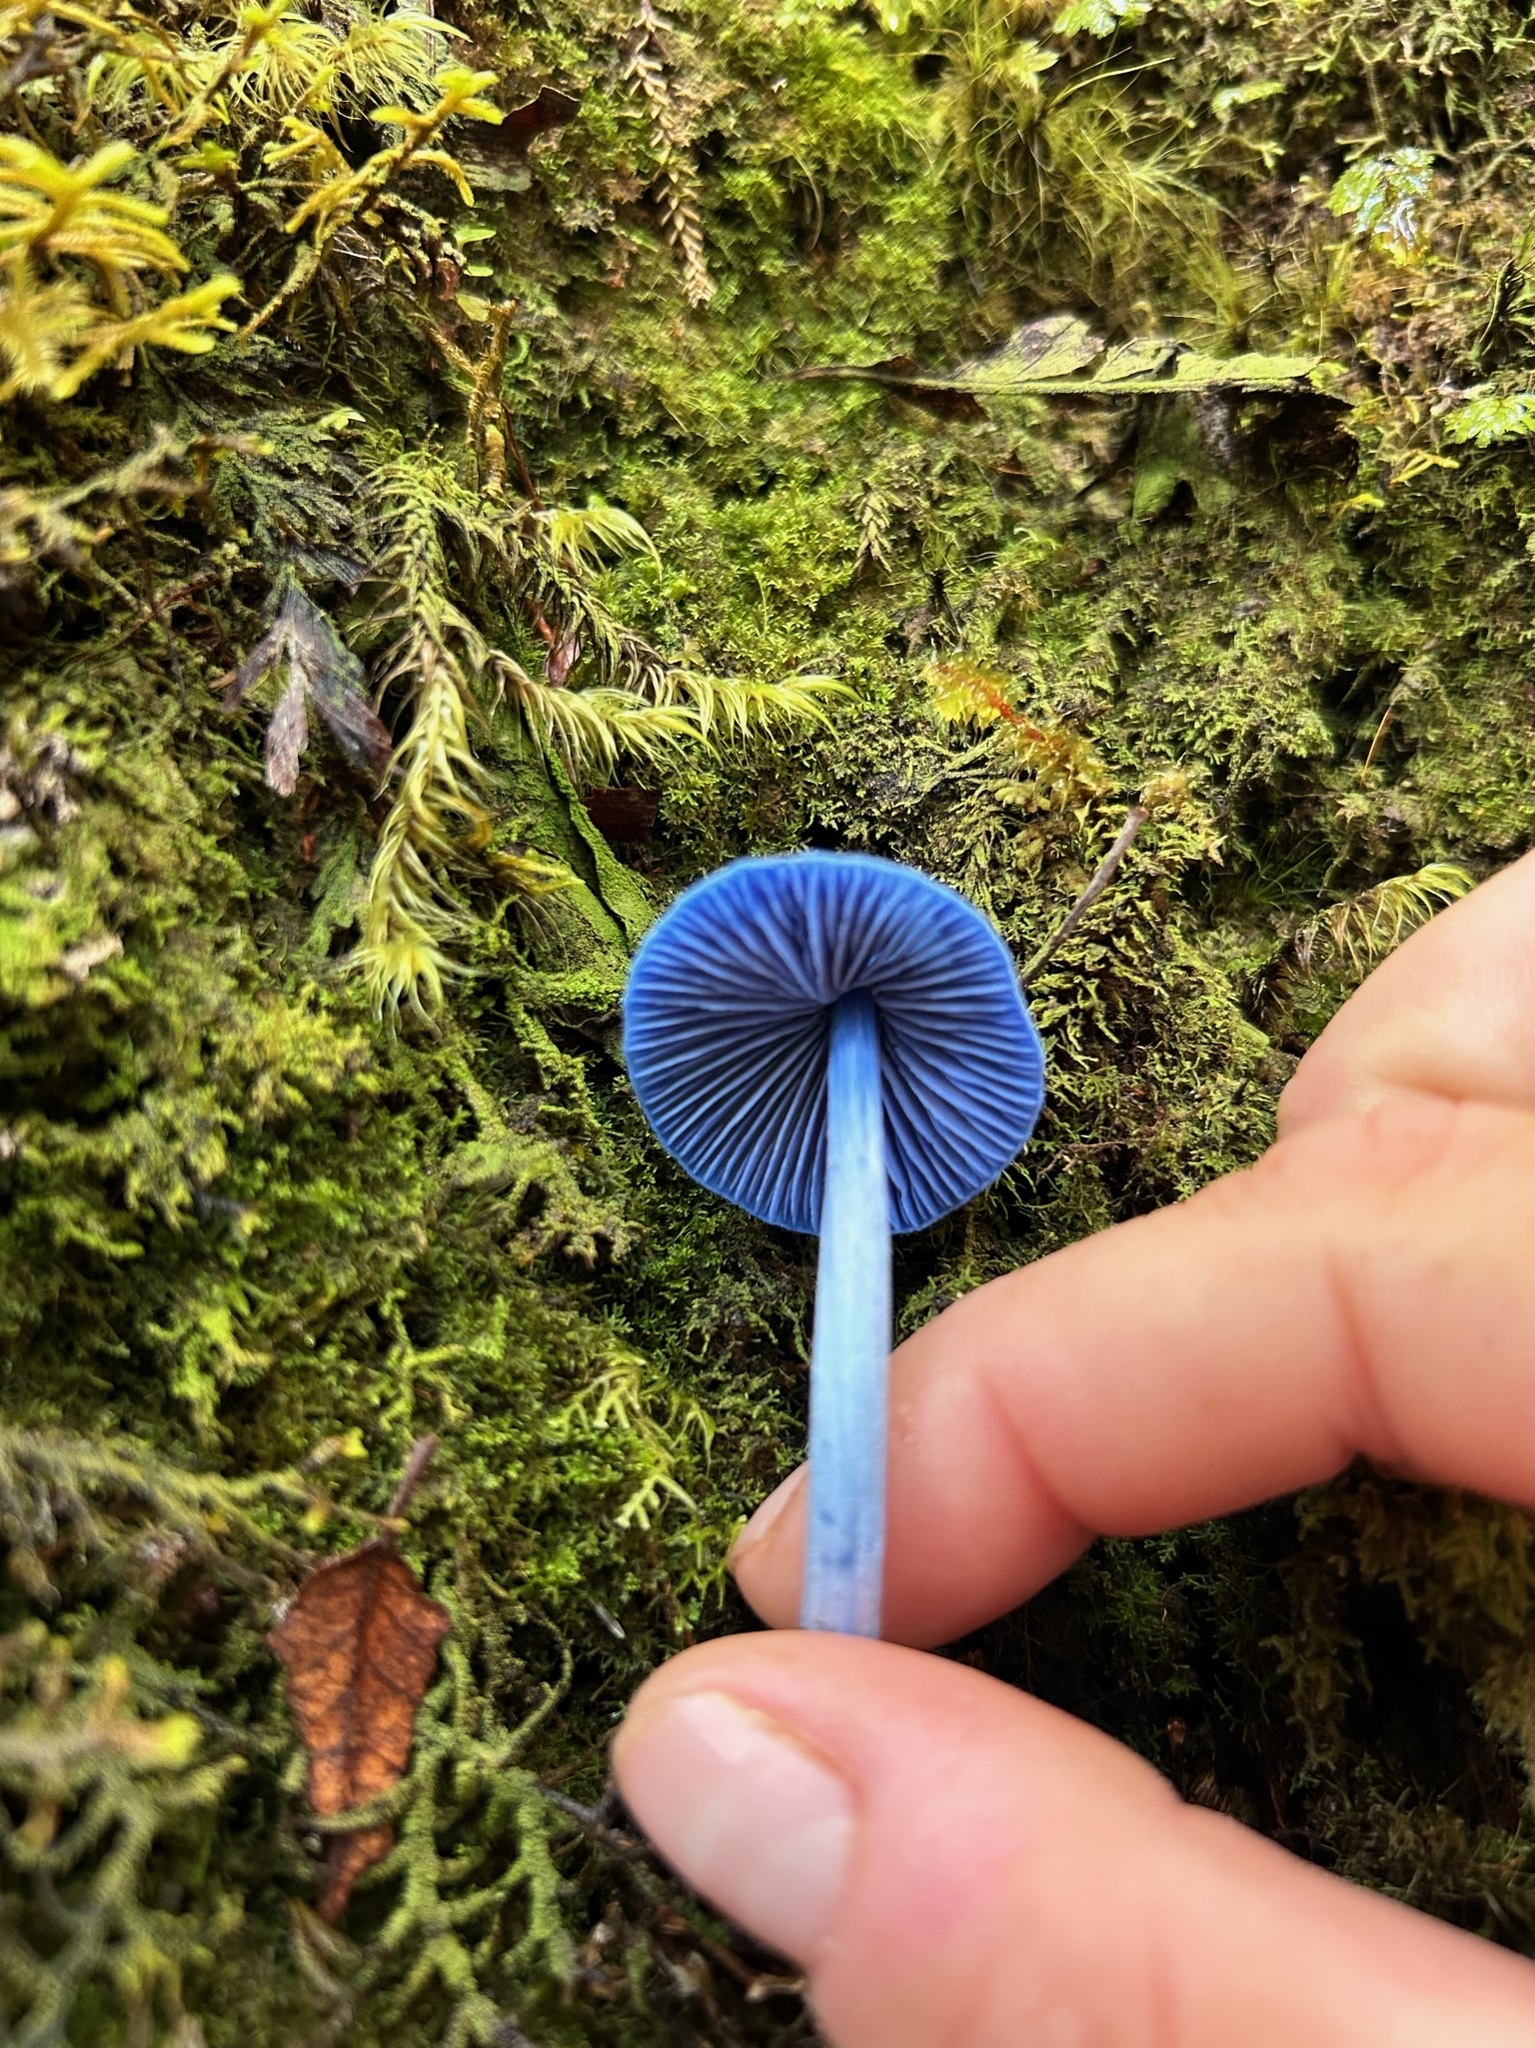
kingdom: Fungi
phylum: Basidiomycota
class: Agaricomycetes
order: Agaricales
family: Entolomataceae
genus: Entoloma
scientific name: Entoloma hochstetteri
